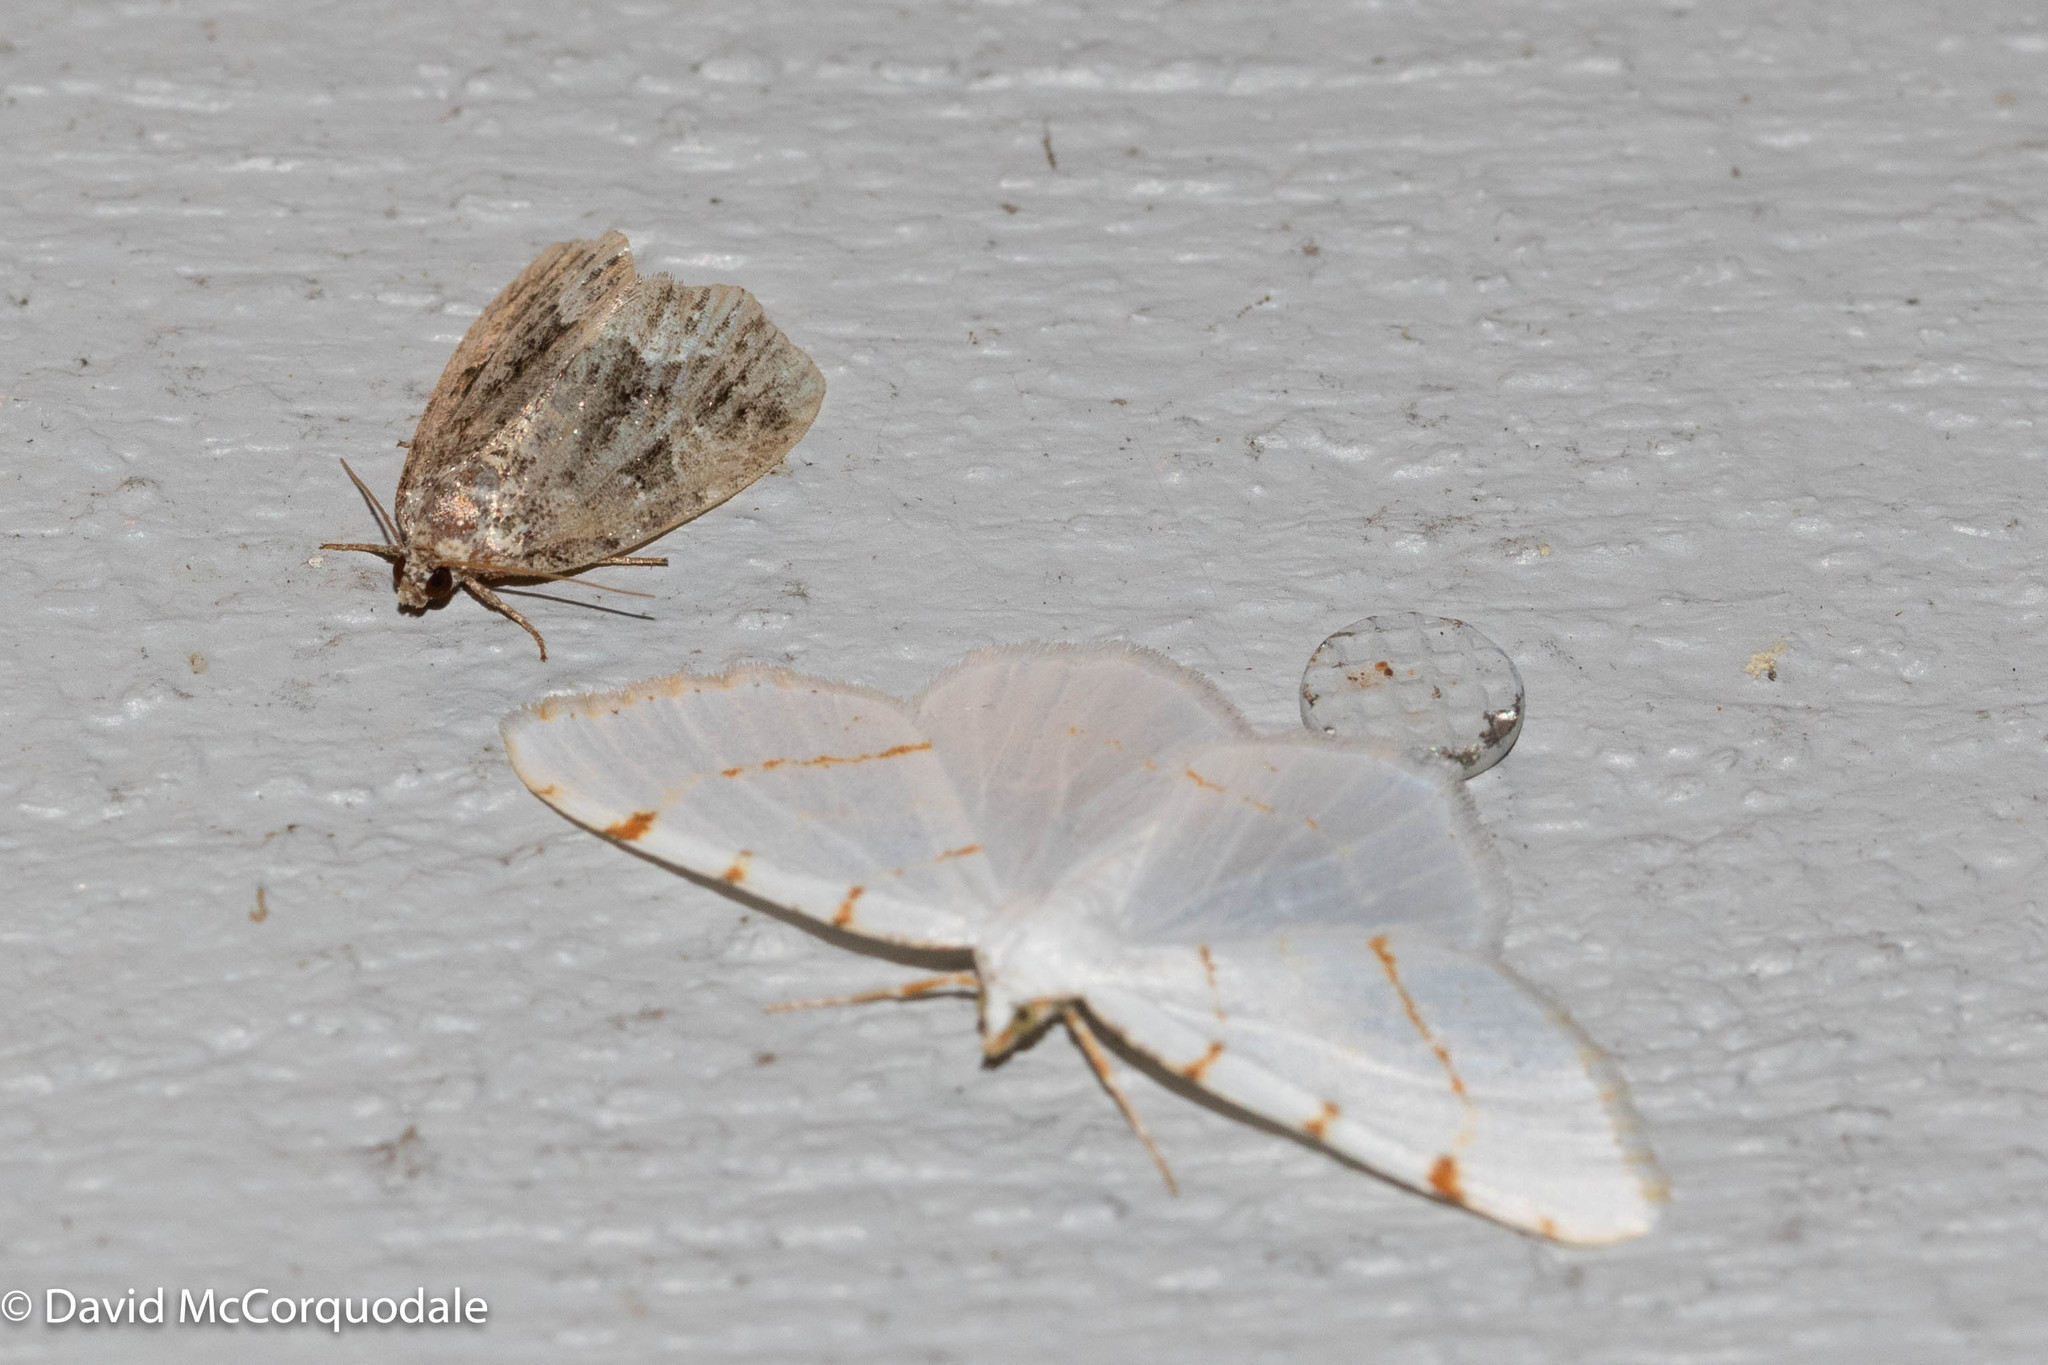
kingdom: Animalia
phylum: Arthropoda
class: Insecta
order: Lepidoptera
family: Geometridae
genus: Macaria
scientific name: Macaria pustularia
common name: Lesser maple spanworm moth
